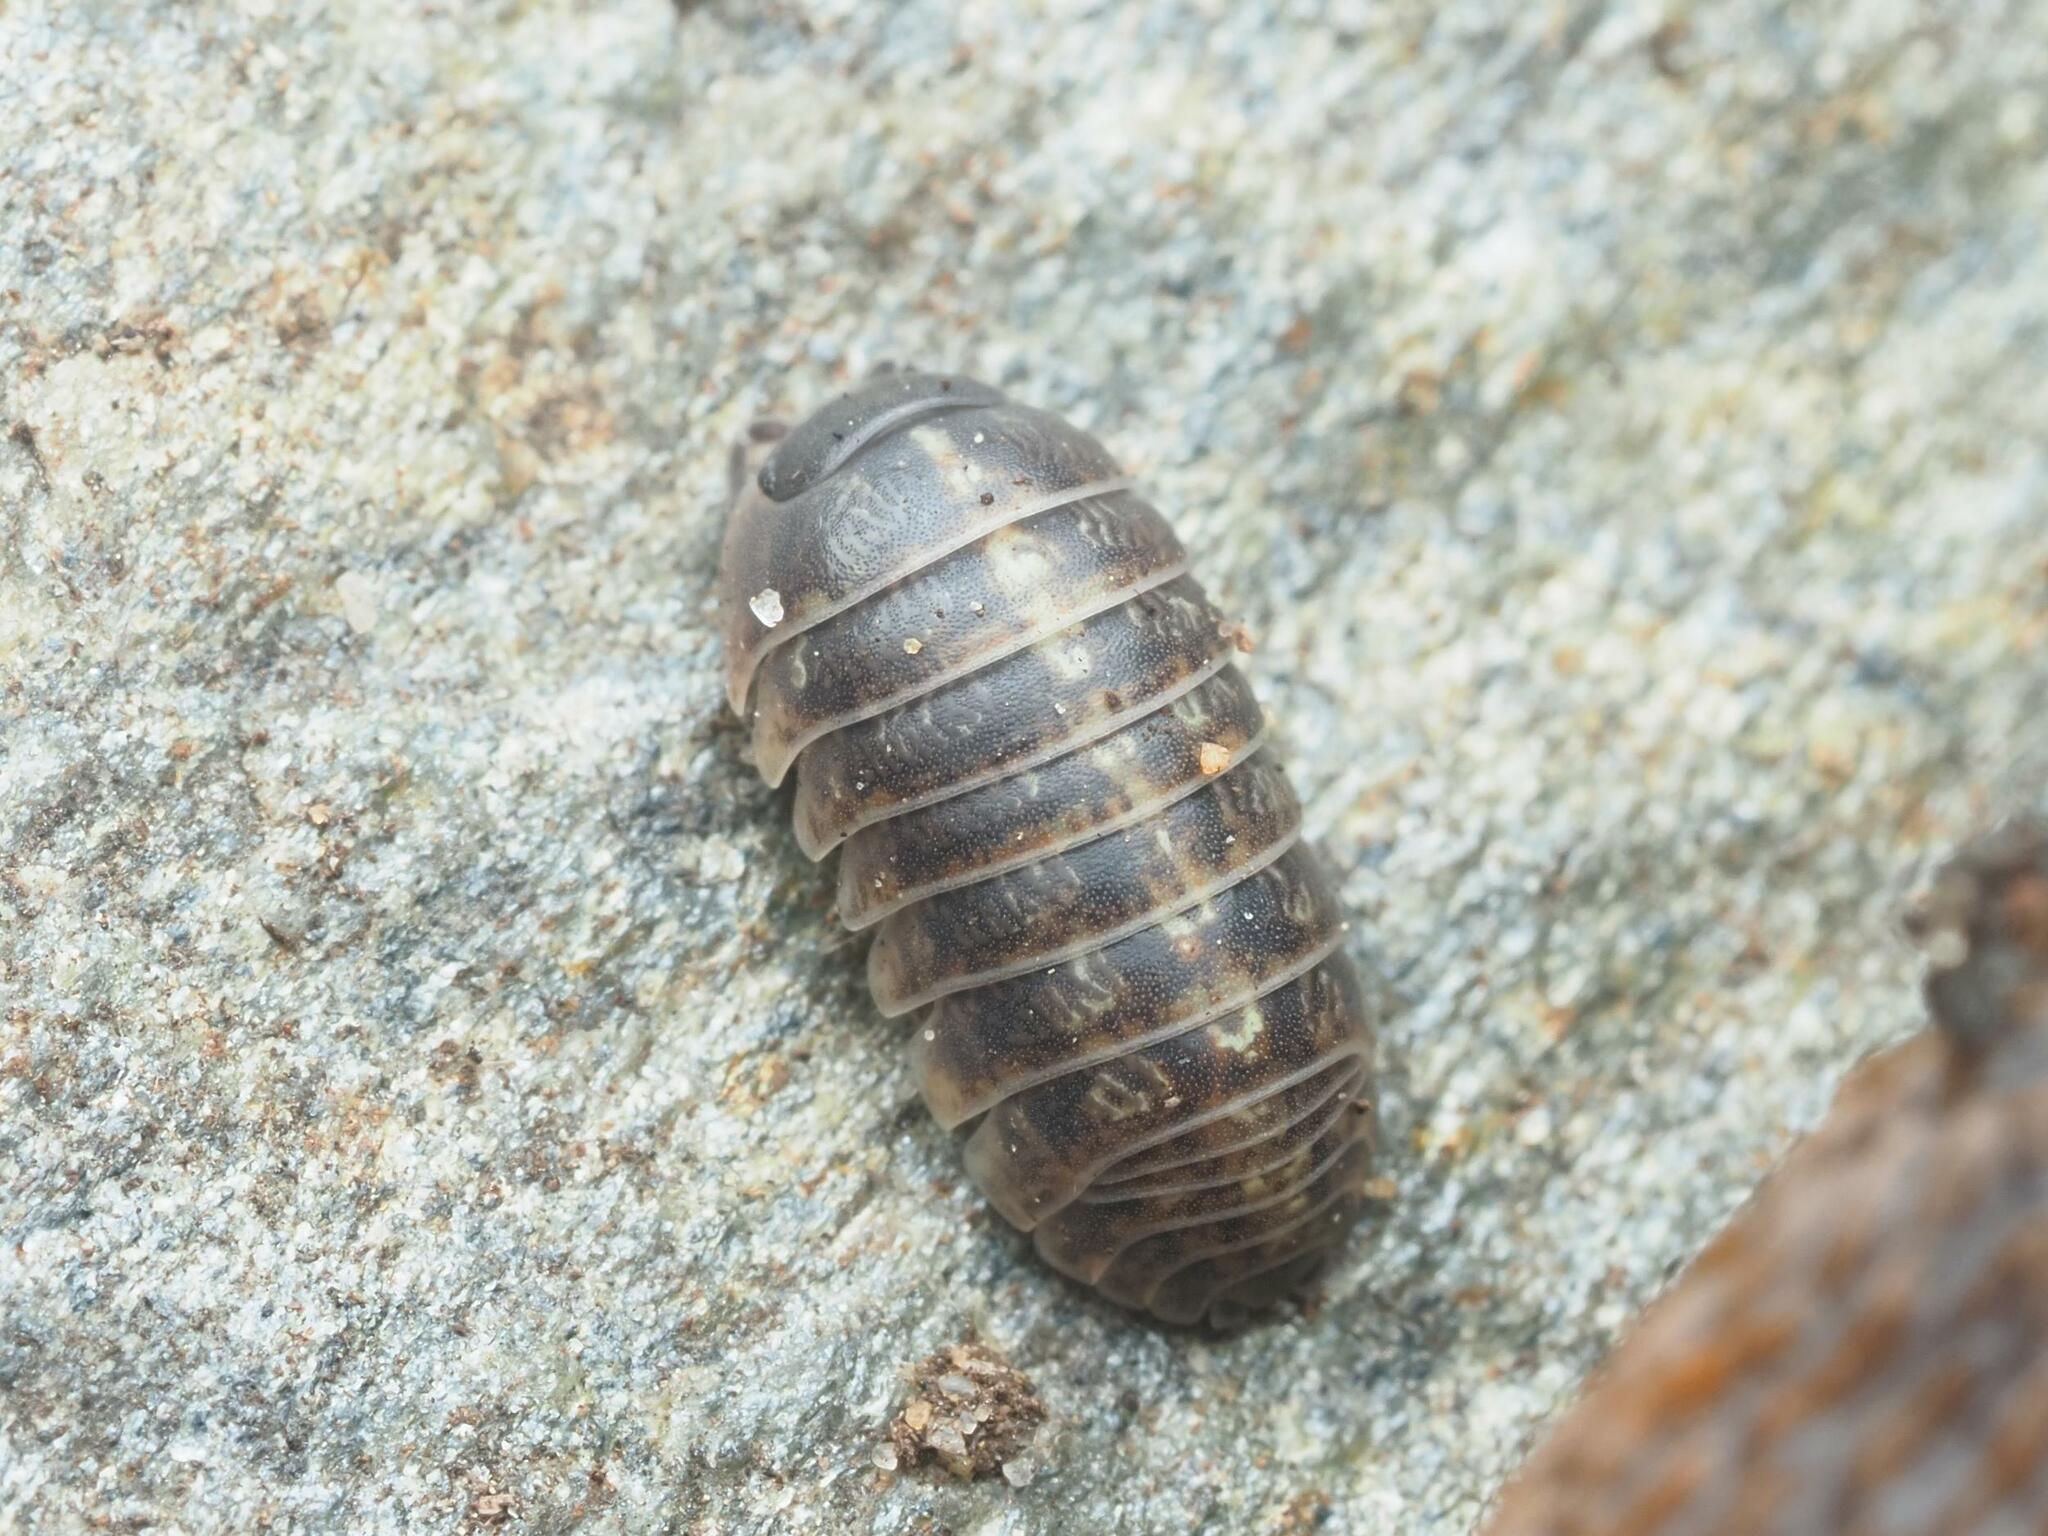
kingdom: Animalia
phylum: Arthropoda
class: Malacostraca
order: Isopoda
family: Armadillidiidae
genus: Armadillidium
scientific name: Armadillidium vulgare
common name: Common pill woodlouse
